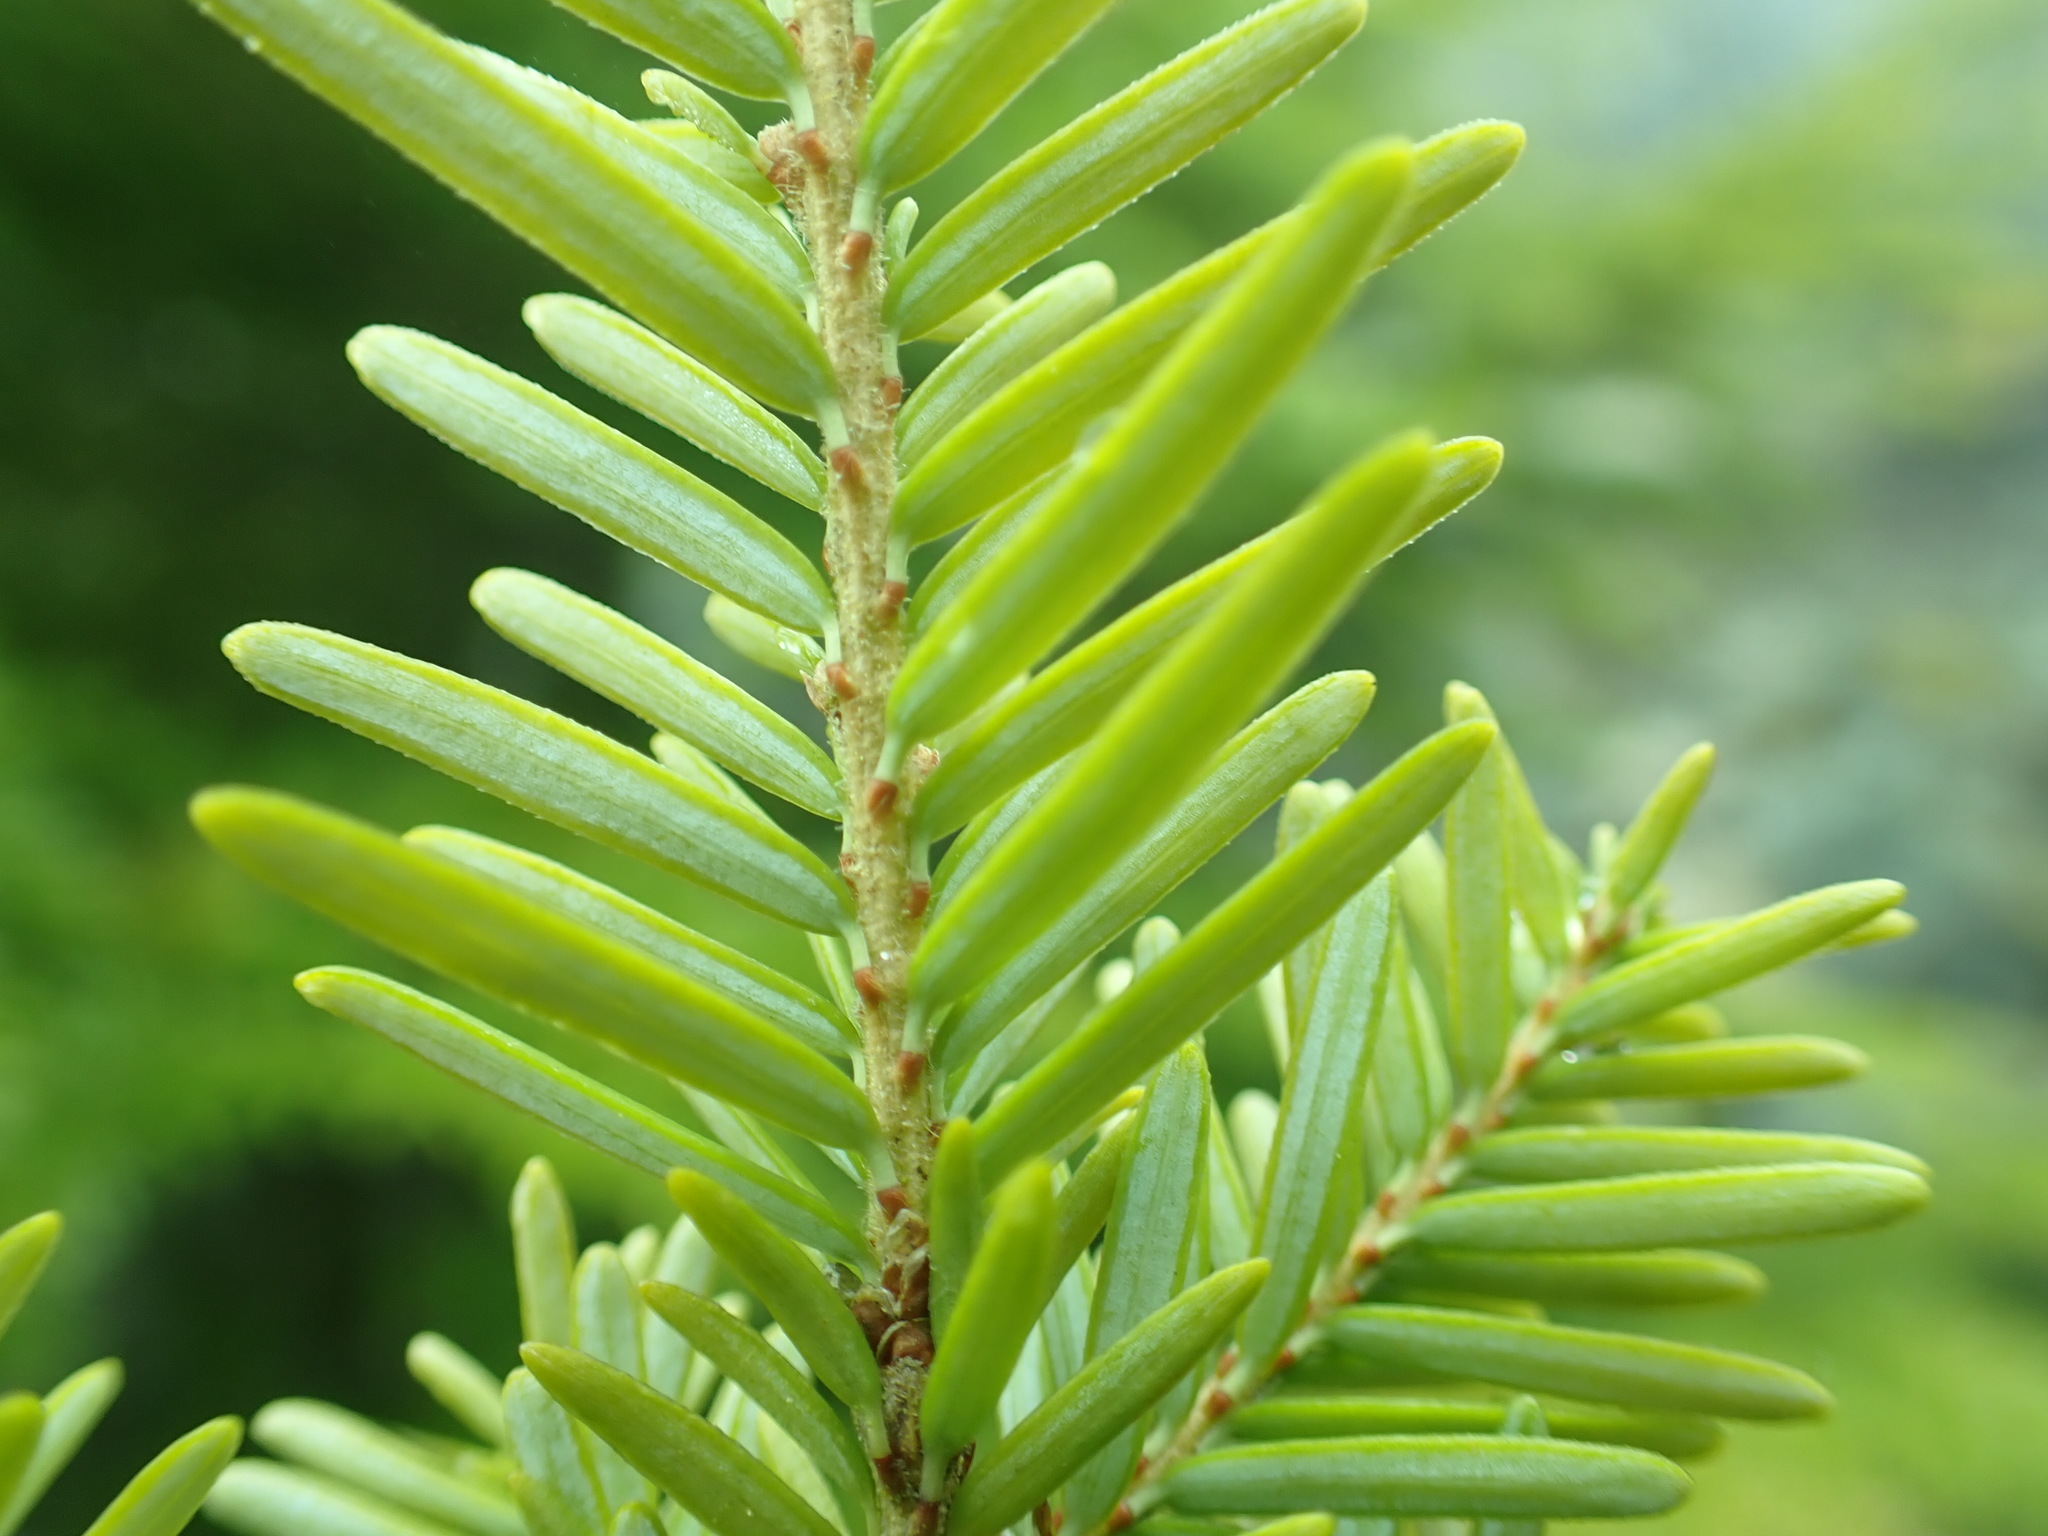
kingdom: Plantae
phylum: Tracheophyta
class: Pinopsida
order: Pinales
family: Pinaceae
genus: Tsuga
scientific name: Tsuga heterophylla
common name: Western hemlock
